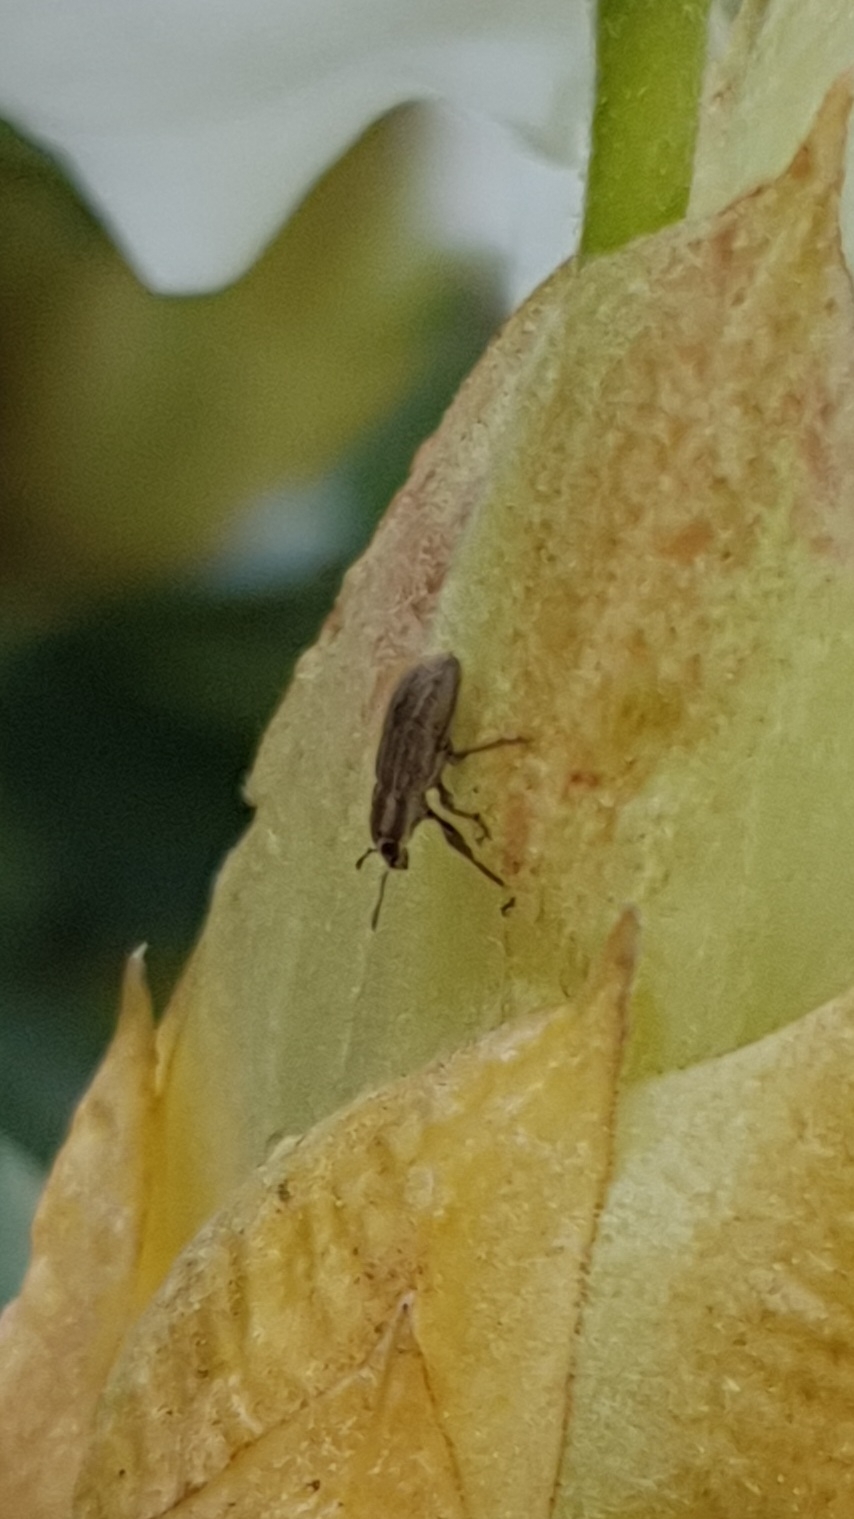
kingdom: Animalia
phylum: Arthropoda
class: Insecta
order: Coleoptera
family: Curculionidae
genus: Sitona
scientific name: Sitona lineatus
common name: Weevil
